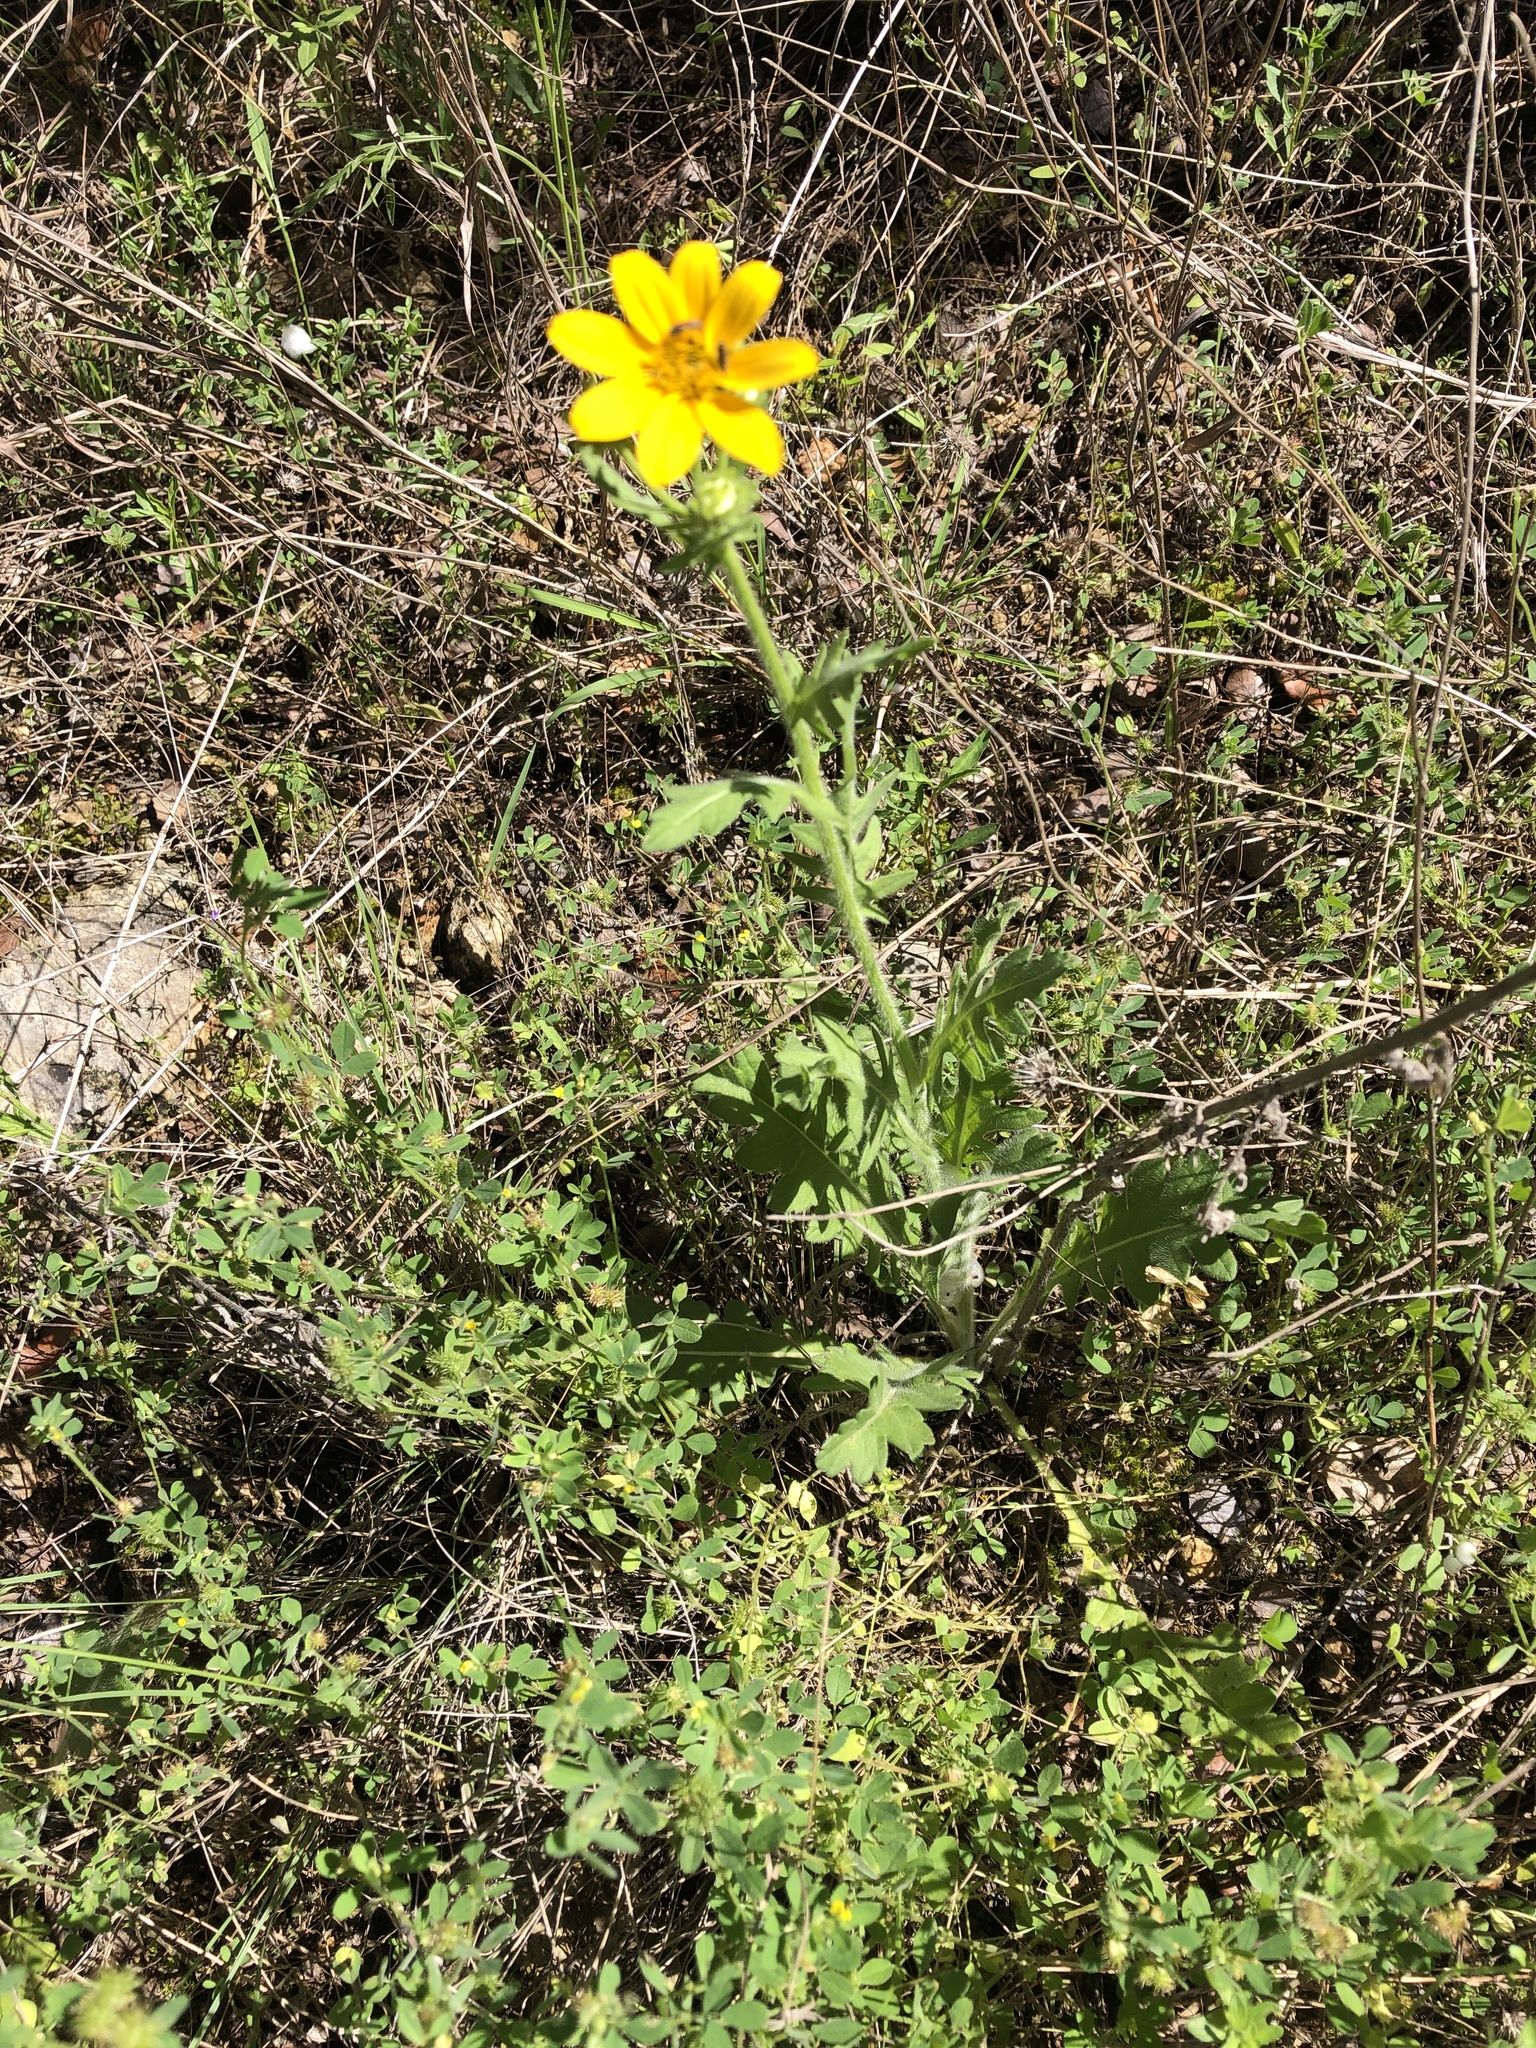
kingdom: Plantae
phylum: Tracheophyta
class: Magnoliopsida
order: Asterales
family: Asteraceae
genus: Engelmannia
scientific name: Engelmannia peristenia
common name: Engelmann's daisy
